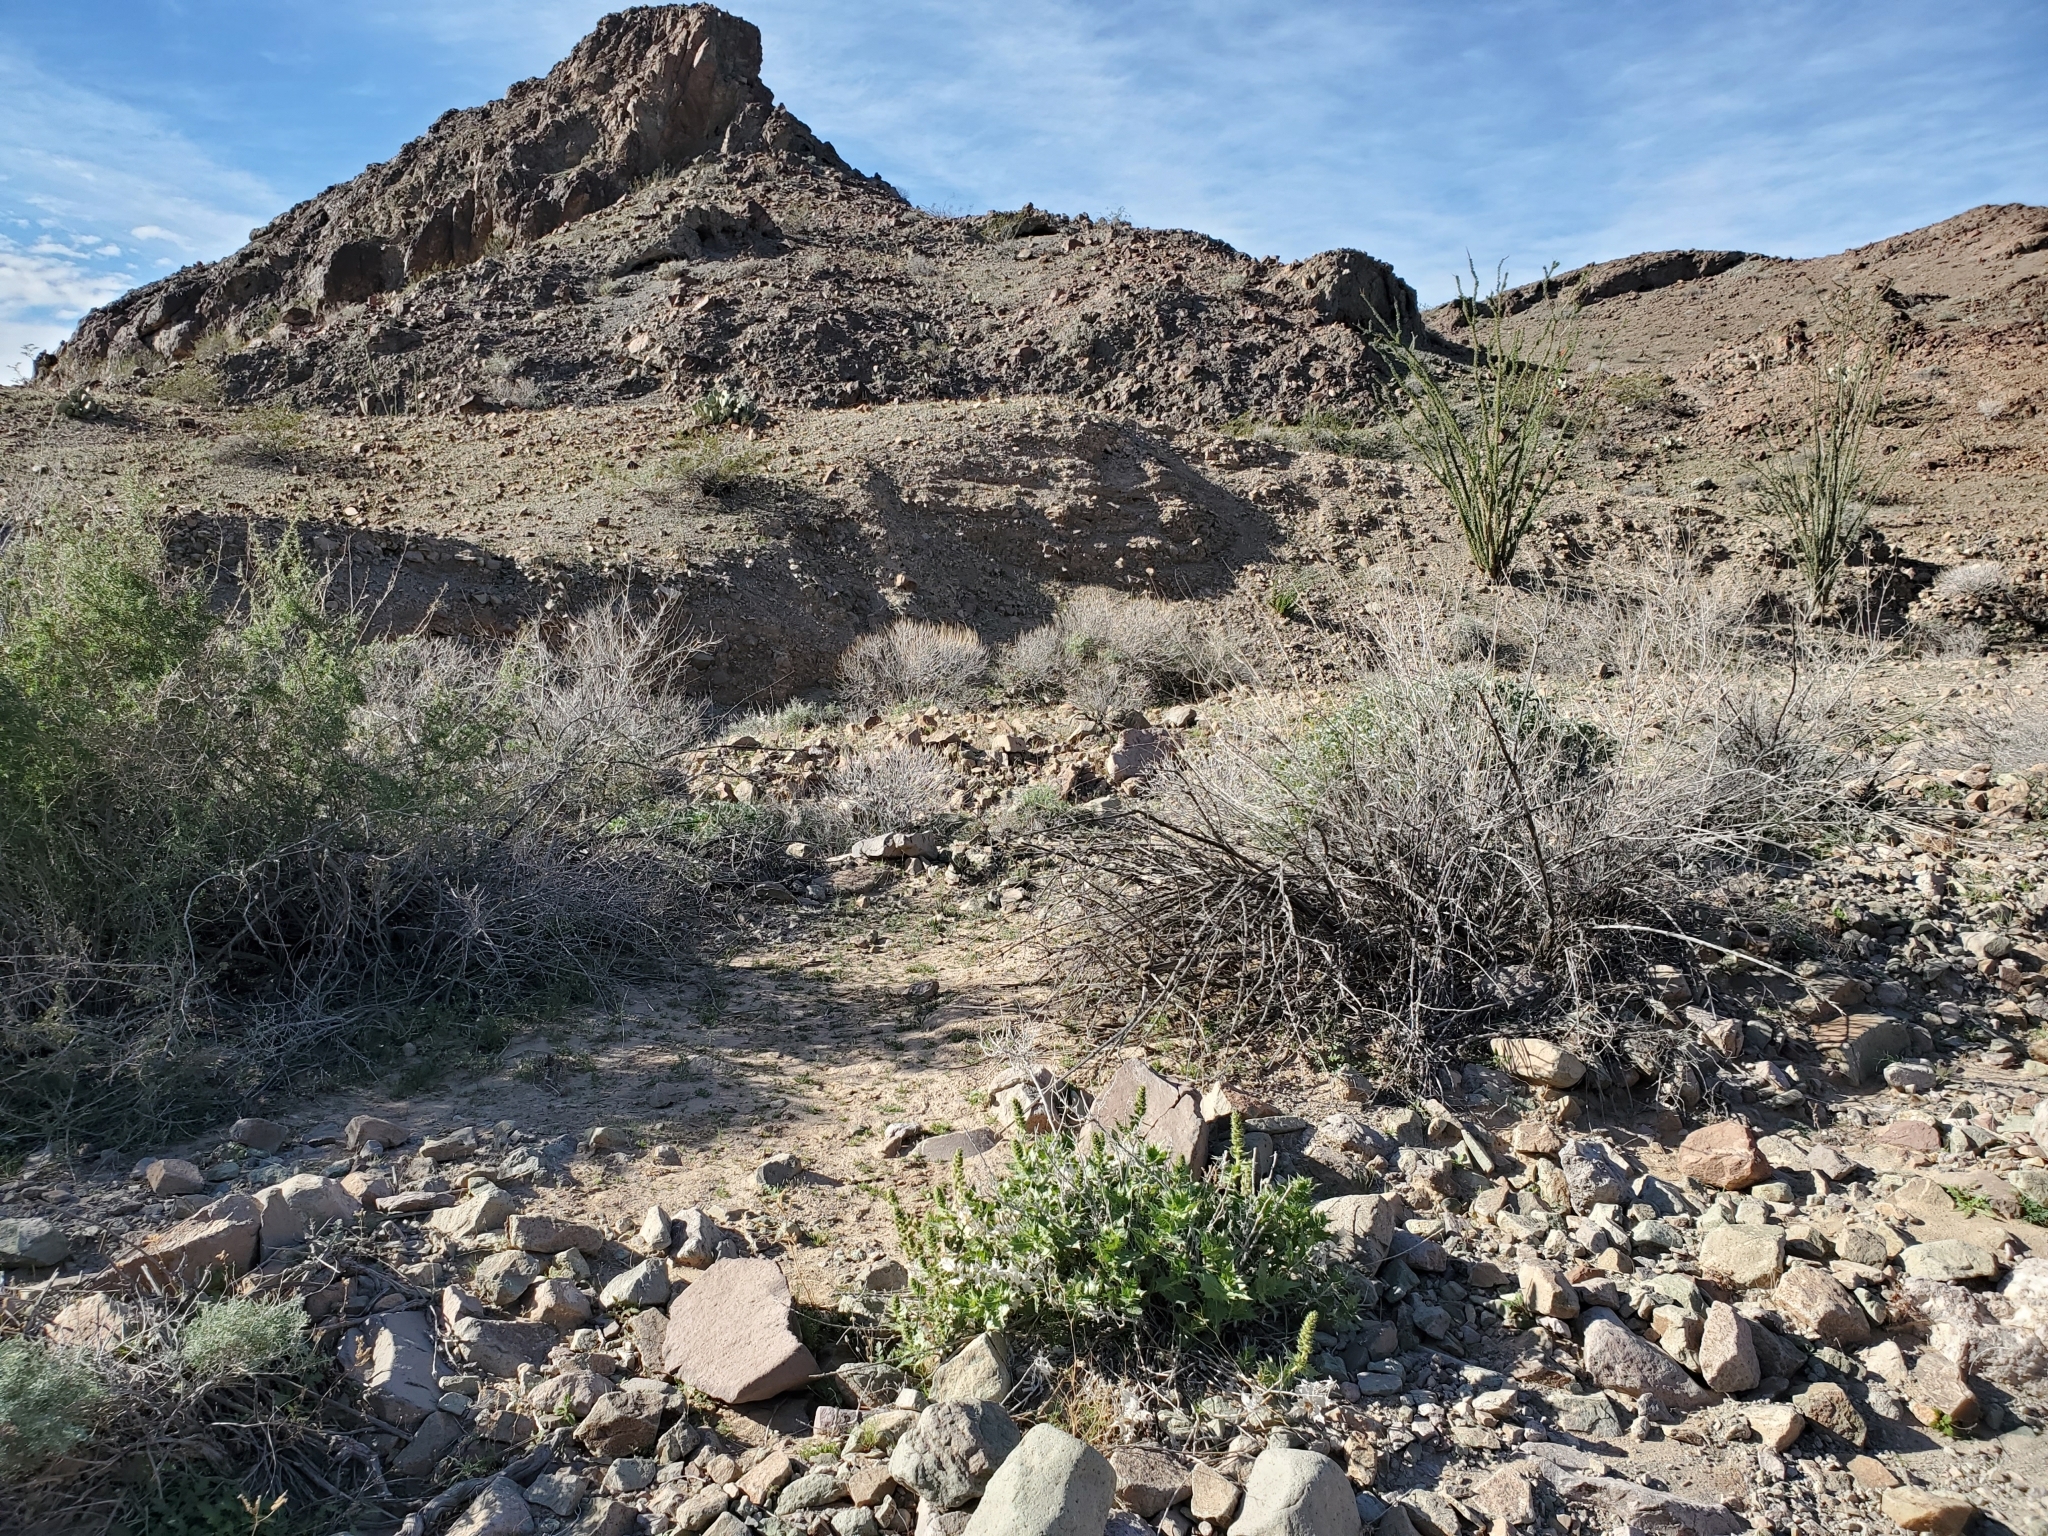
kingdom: Plantae
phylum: Tracheophyta
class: Magnoliopsida
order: Asterales
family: Asteraceae
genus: Ambrosia
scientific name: Ambrosia ilicifolia
